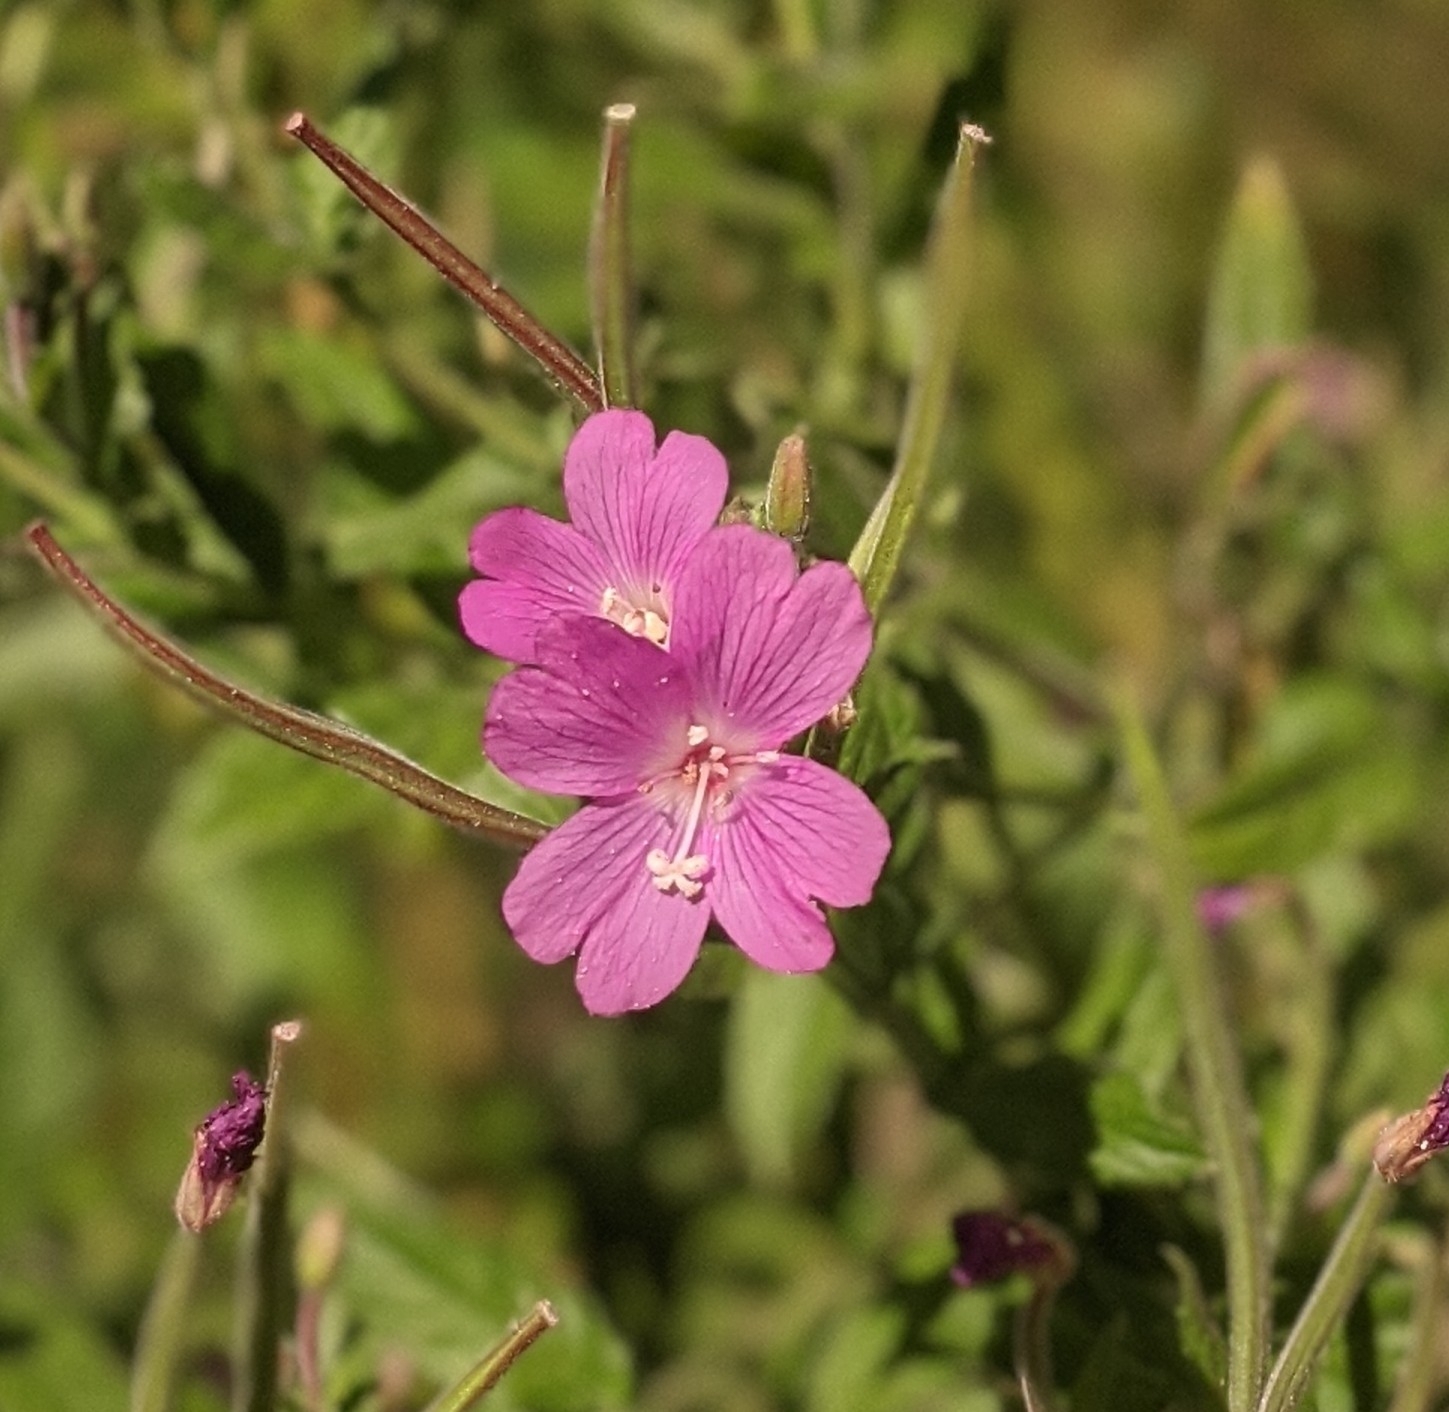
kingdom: Plantae
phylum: Tracheophyta
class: Magnoliopsida
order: Myrtales
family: Onagraceae
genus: Epilobium
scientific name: Epilobium hirsutum
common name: Great willowherb
